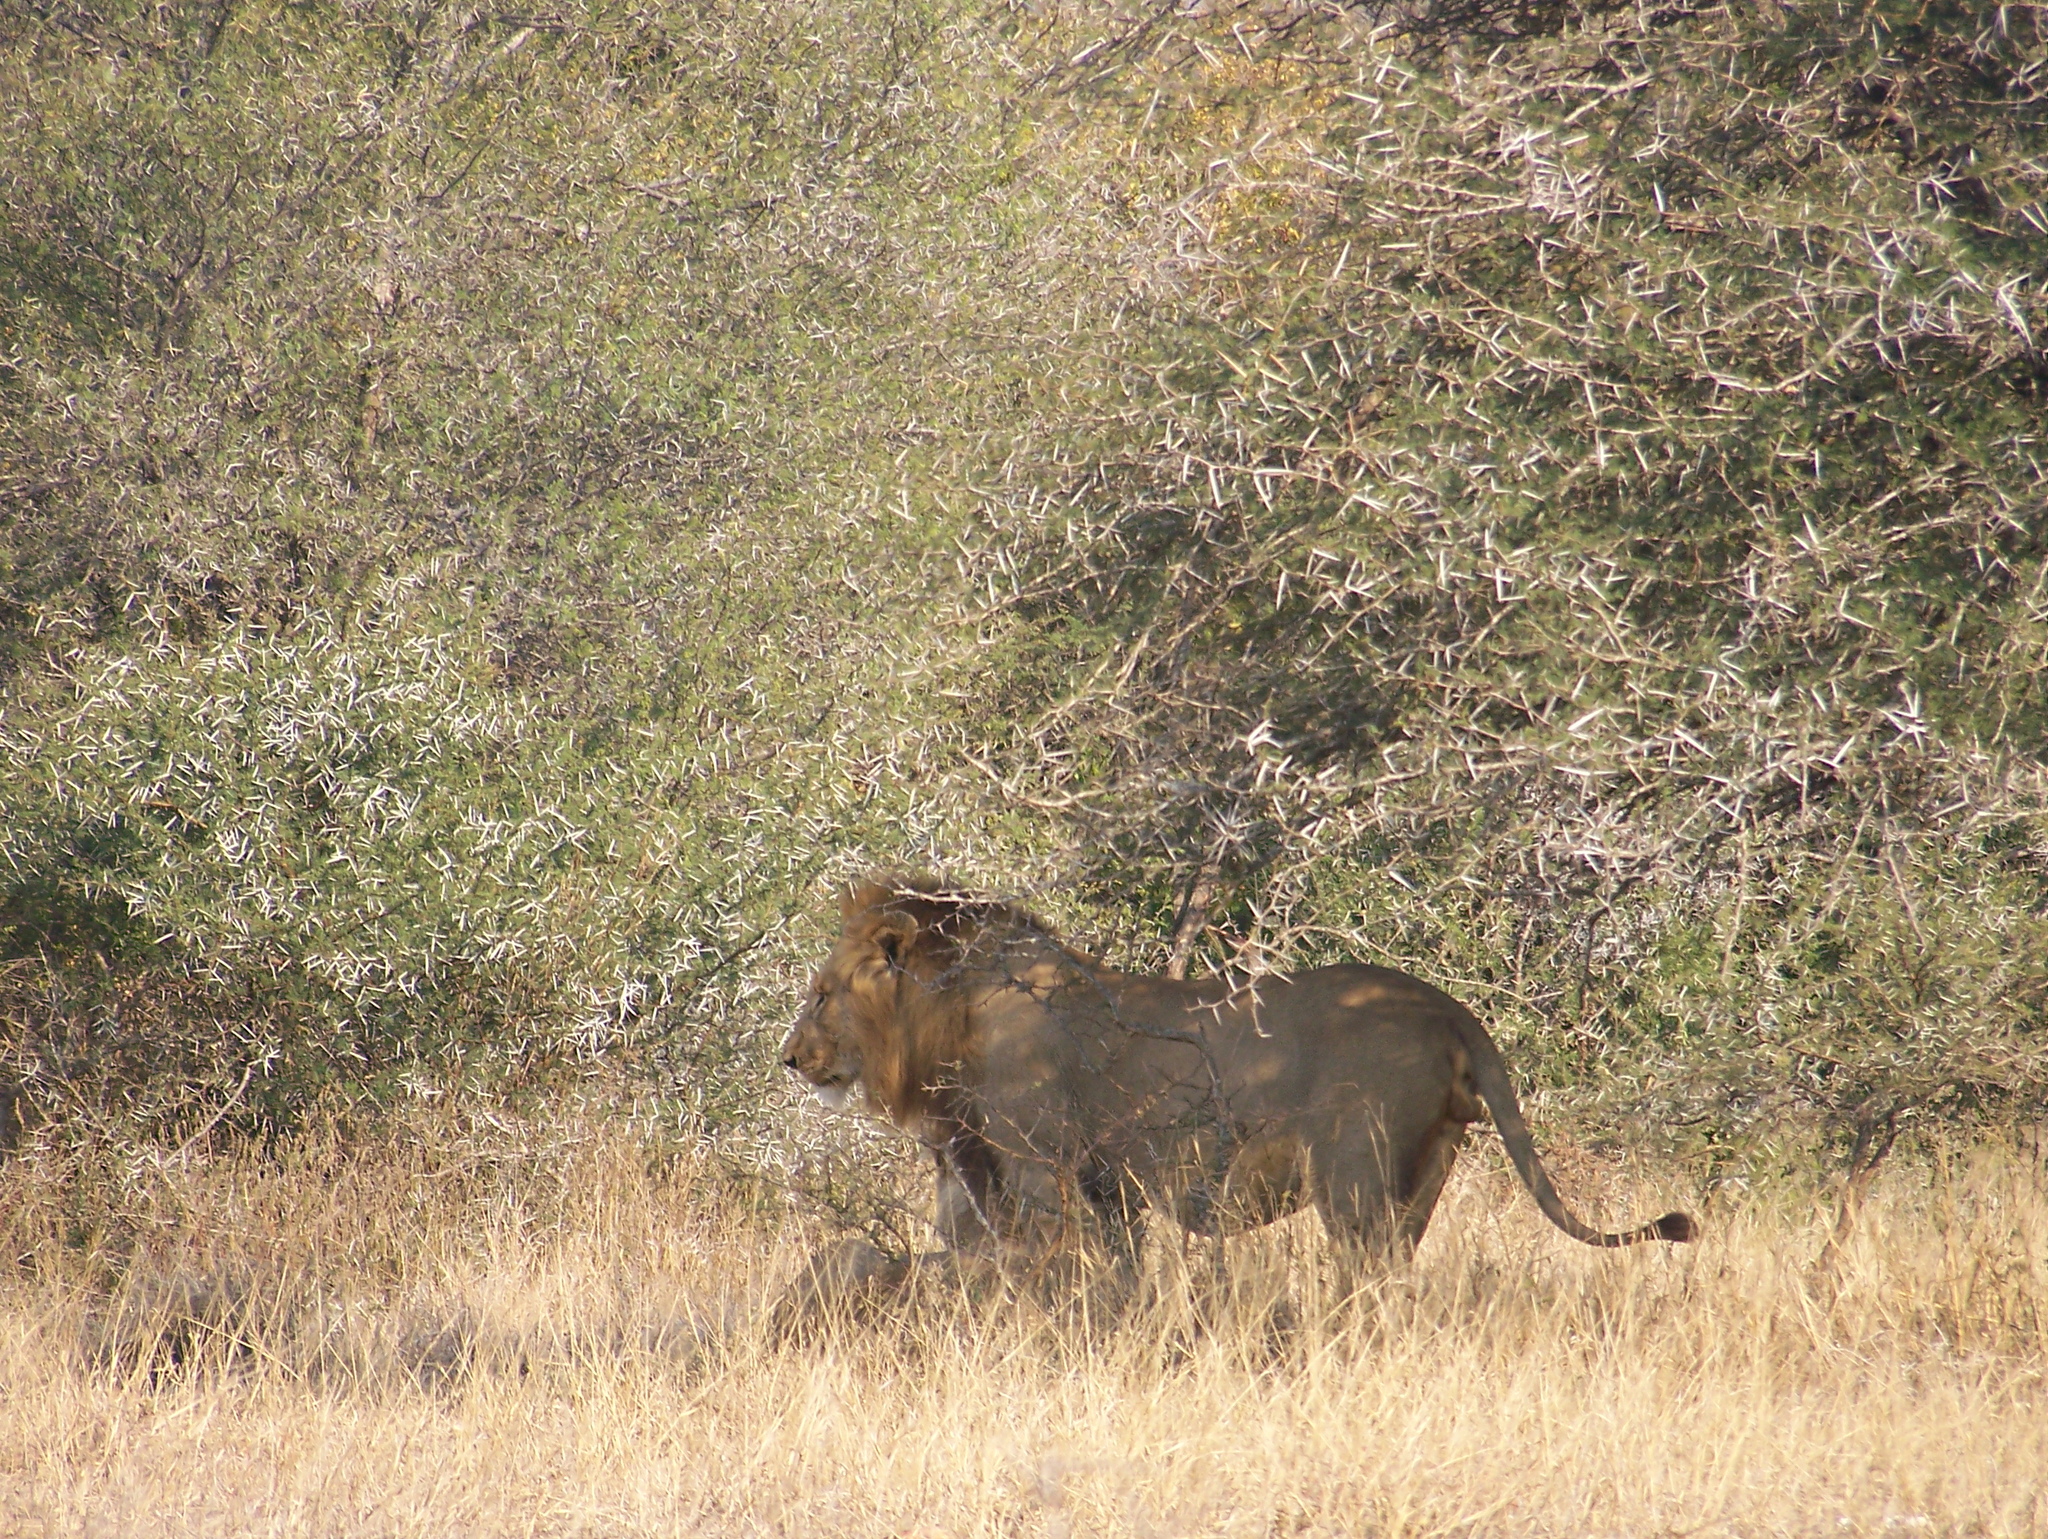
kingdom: Animalia
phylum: Chordata
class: Mammalia
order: Carnivora
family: Felidae
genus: Panthera
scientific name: Panthera leo
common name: Lion
